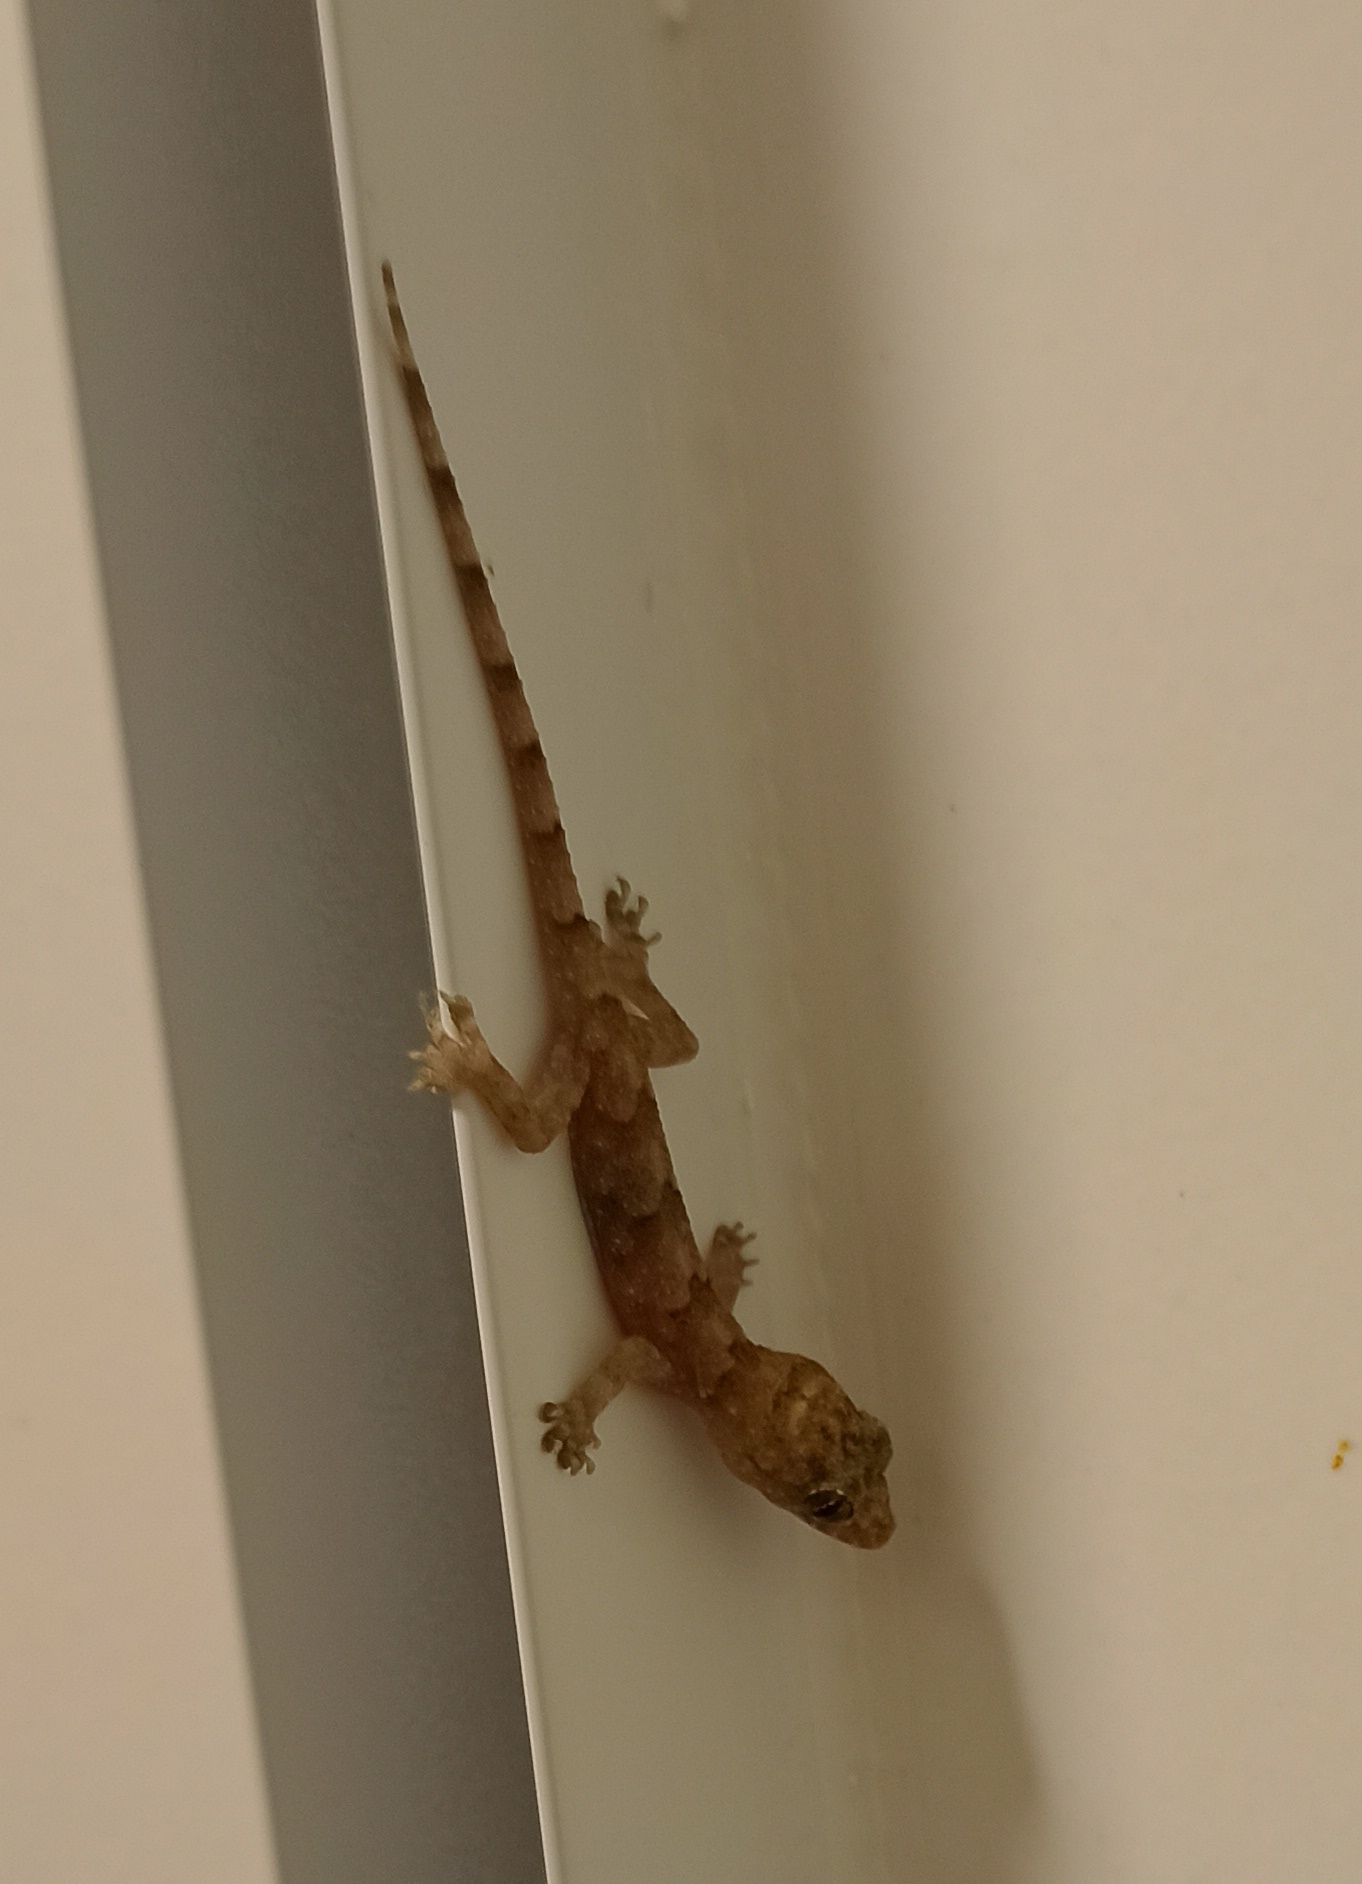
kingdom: Animalia
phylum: Chordata
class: Squamata
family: Gekkonidae
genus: Hemidactylus
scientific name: Hemidactylus mabouia
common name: House gecko
